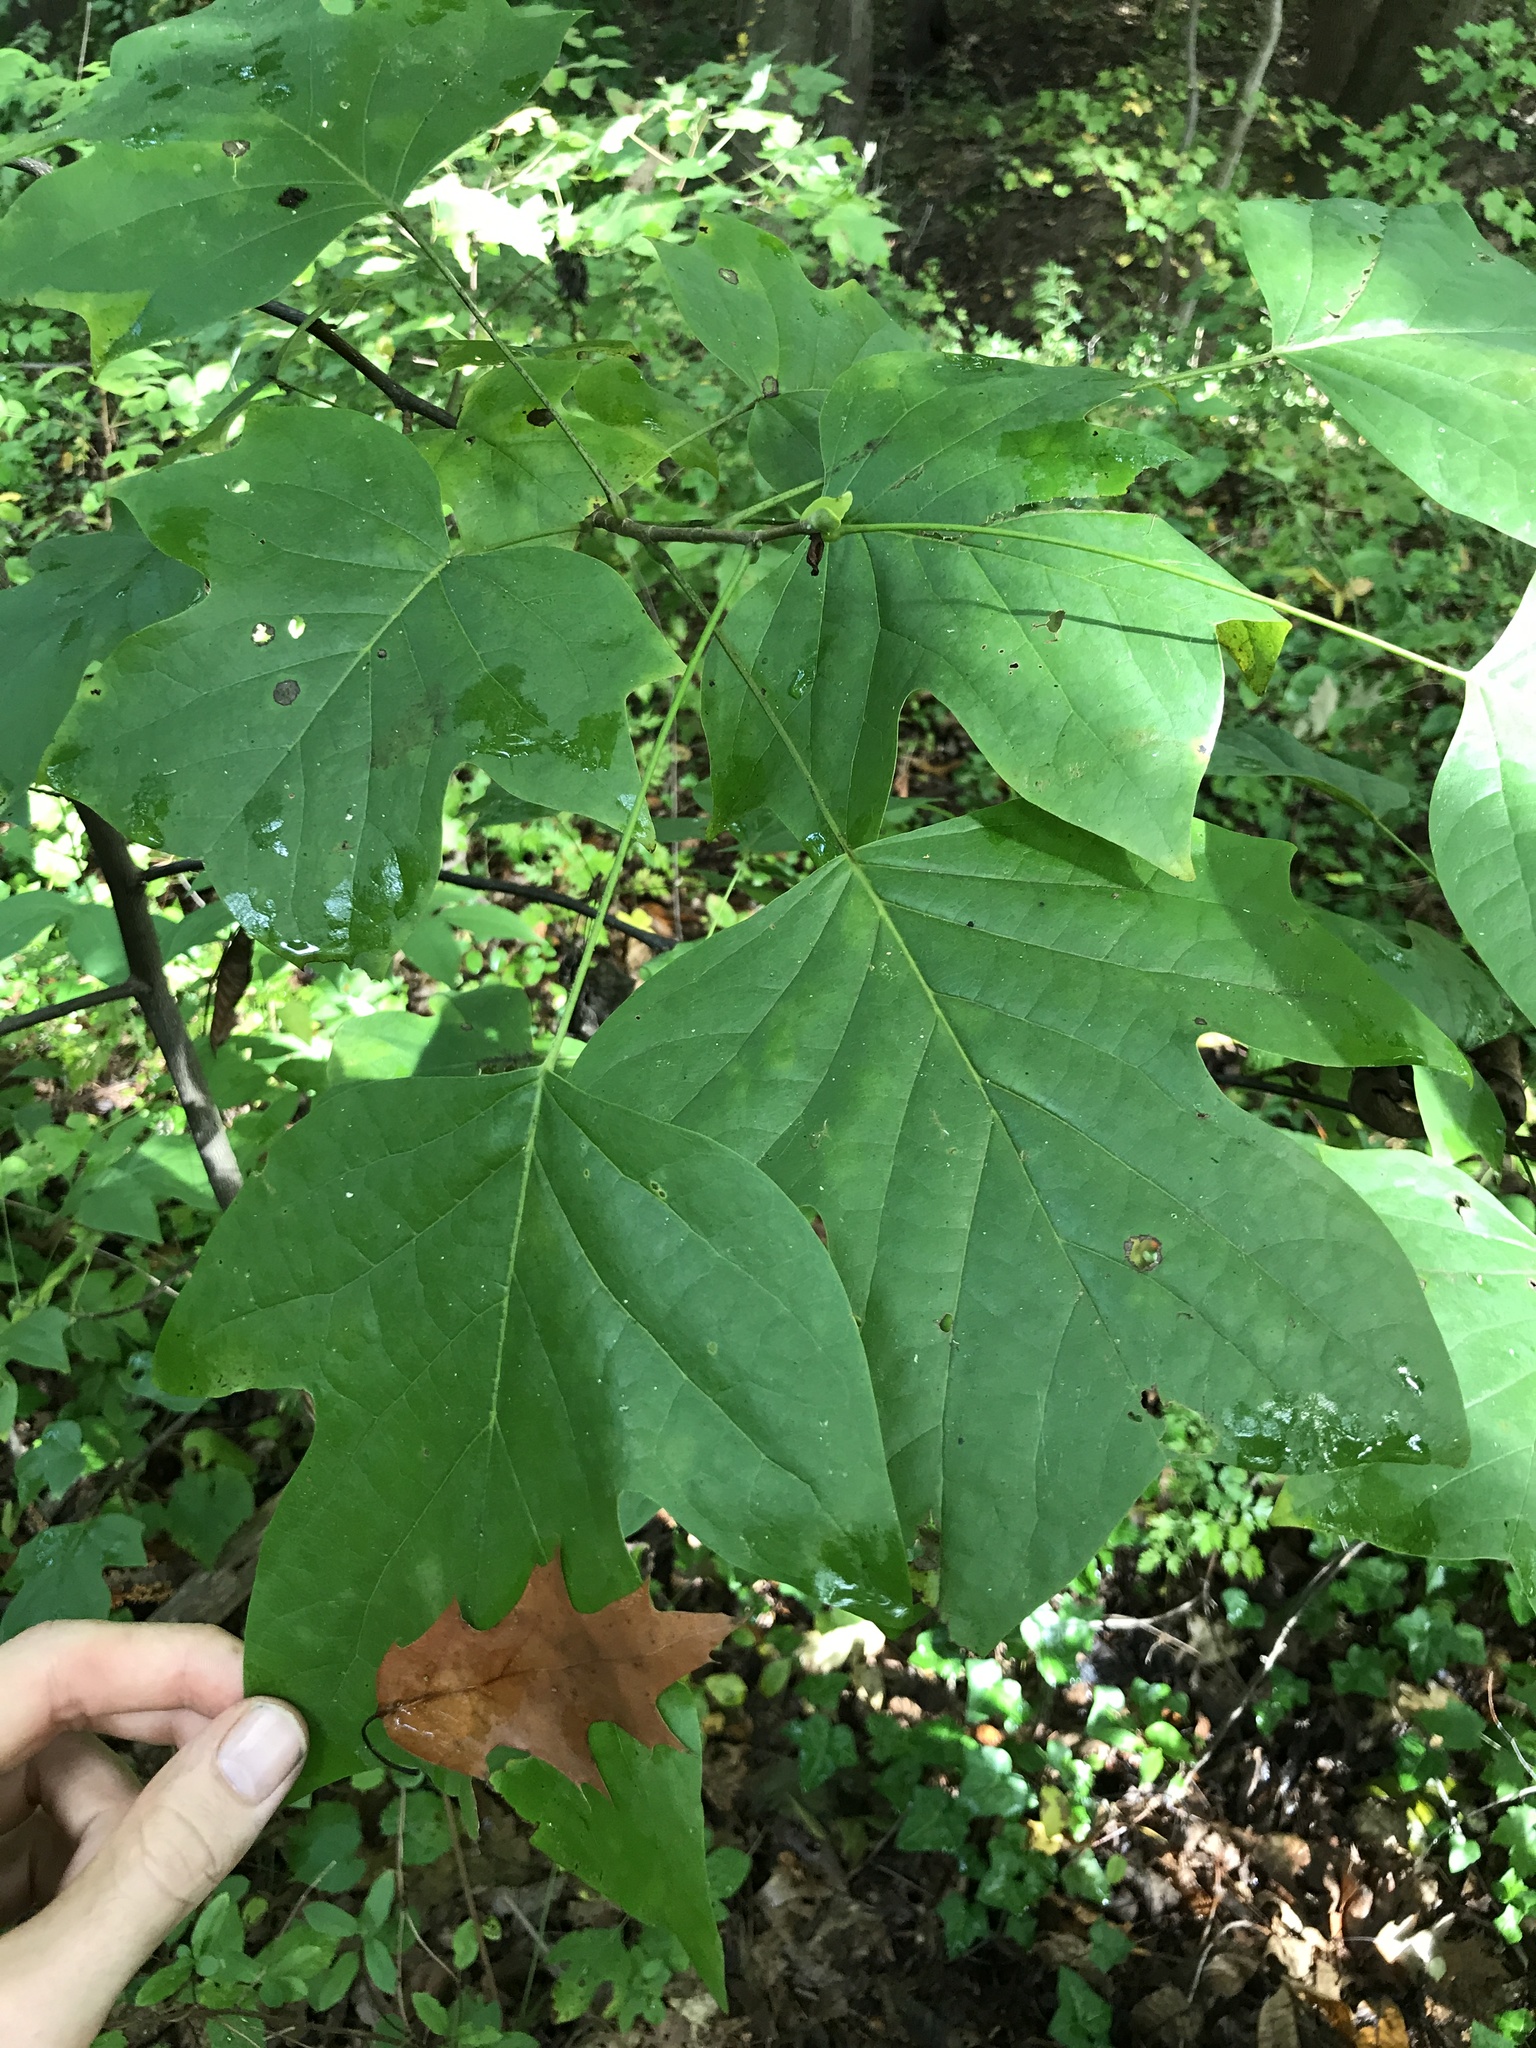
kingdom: Plantae
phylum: Tracheophyta
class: Magnoliopsida
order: Magnoliales
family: Magnoliaceae
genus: Liriodendron
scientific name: Liriodendron tulipifera
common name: Tulip tree
